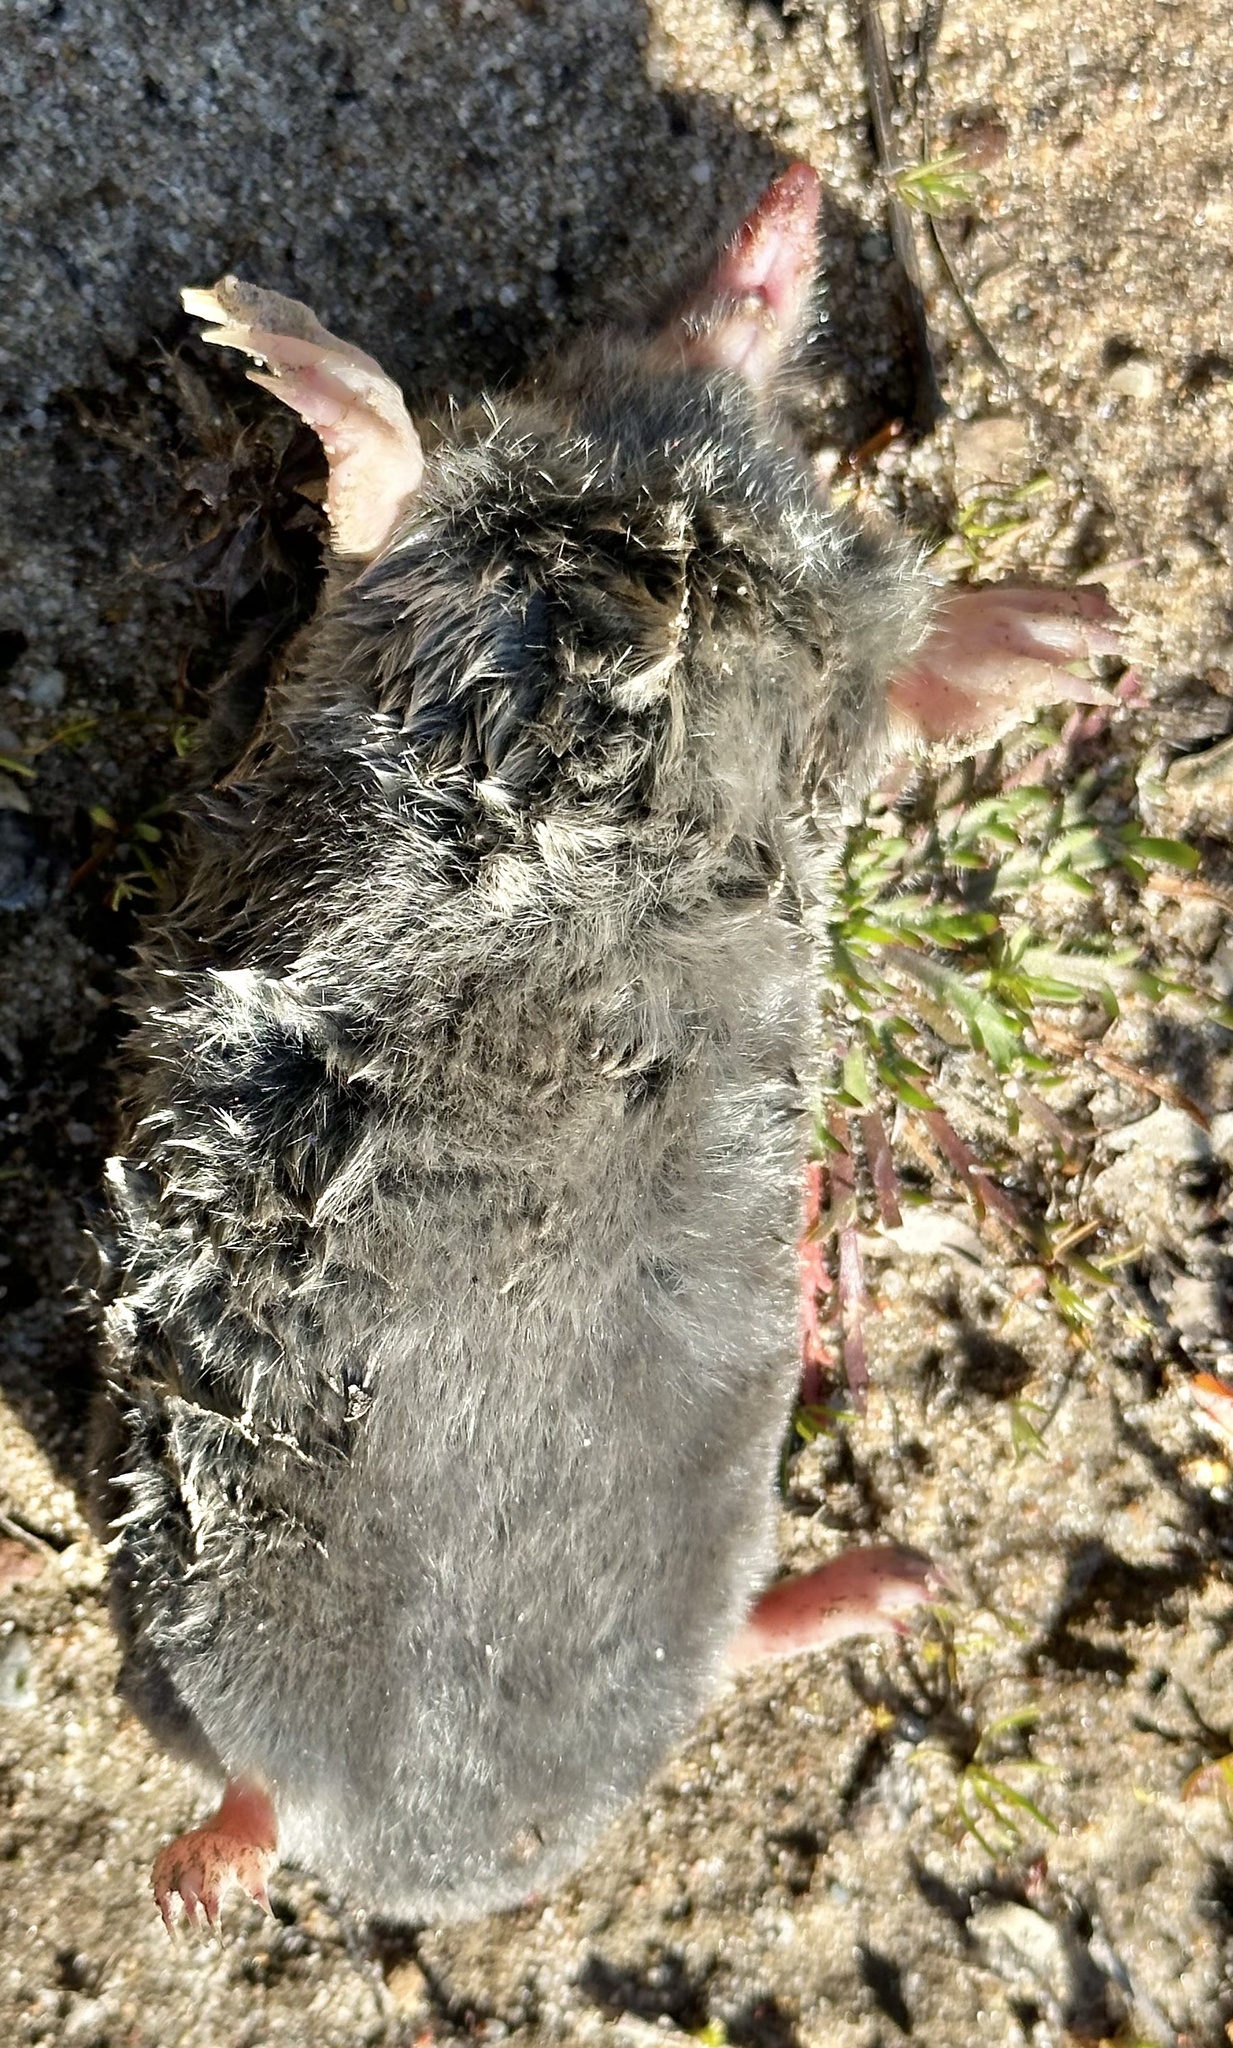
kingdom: Animalia
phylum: Chordata
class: Mammalia
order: Soricomorpha
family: Talpidae
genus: Scapanus
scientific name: Scapanus latimanus
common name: Broad-footed mole
